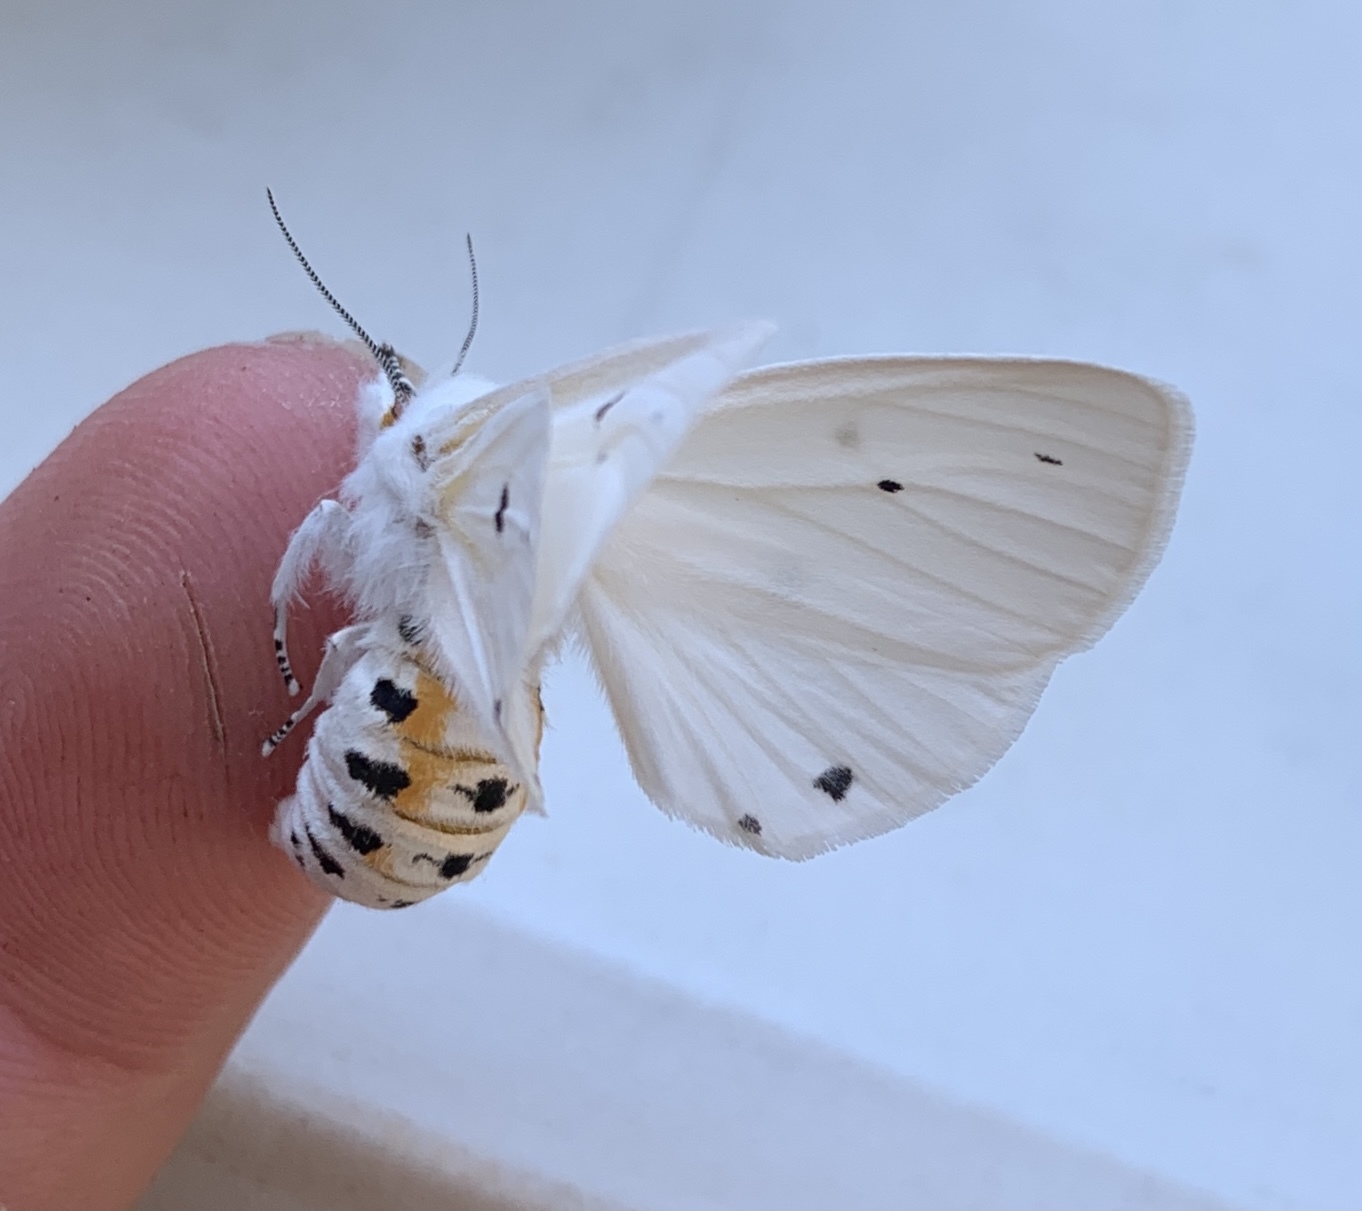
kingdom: Animalia
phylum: Arthropoda
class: Insecta
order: Lepidoptera
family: Erebidae
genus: Spilosoma
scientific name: Spilosoma virginica
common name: Virginia tiger moth
